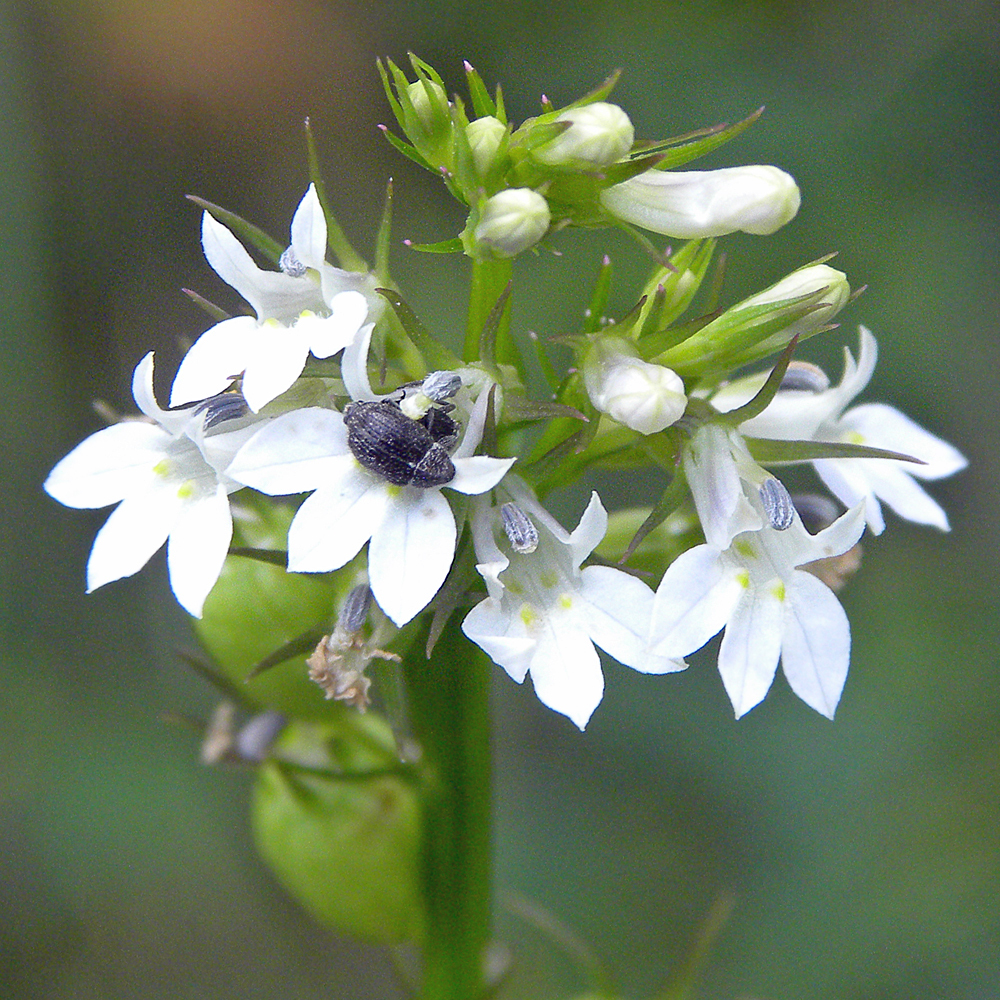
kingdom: Plantae
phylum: Tracheophyta
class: Magnoliopsida
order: Asterales
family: Campanulaceae
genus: Lobelia
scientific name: Lobelia inflata
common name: Indian tobacco
